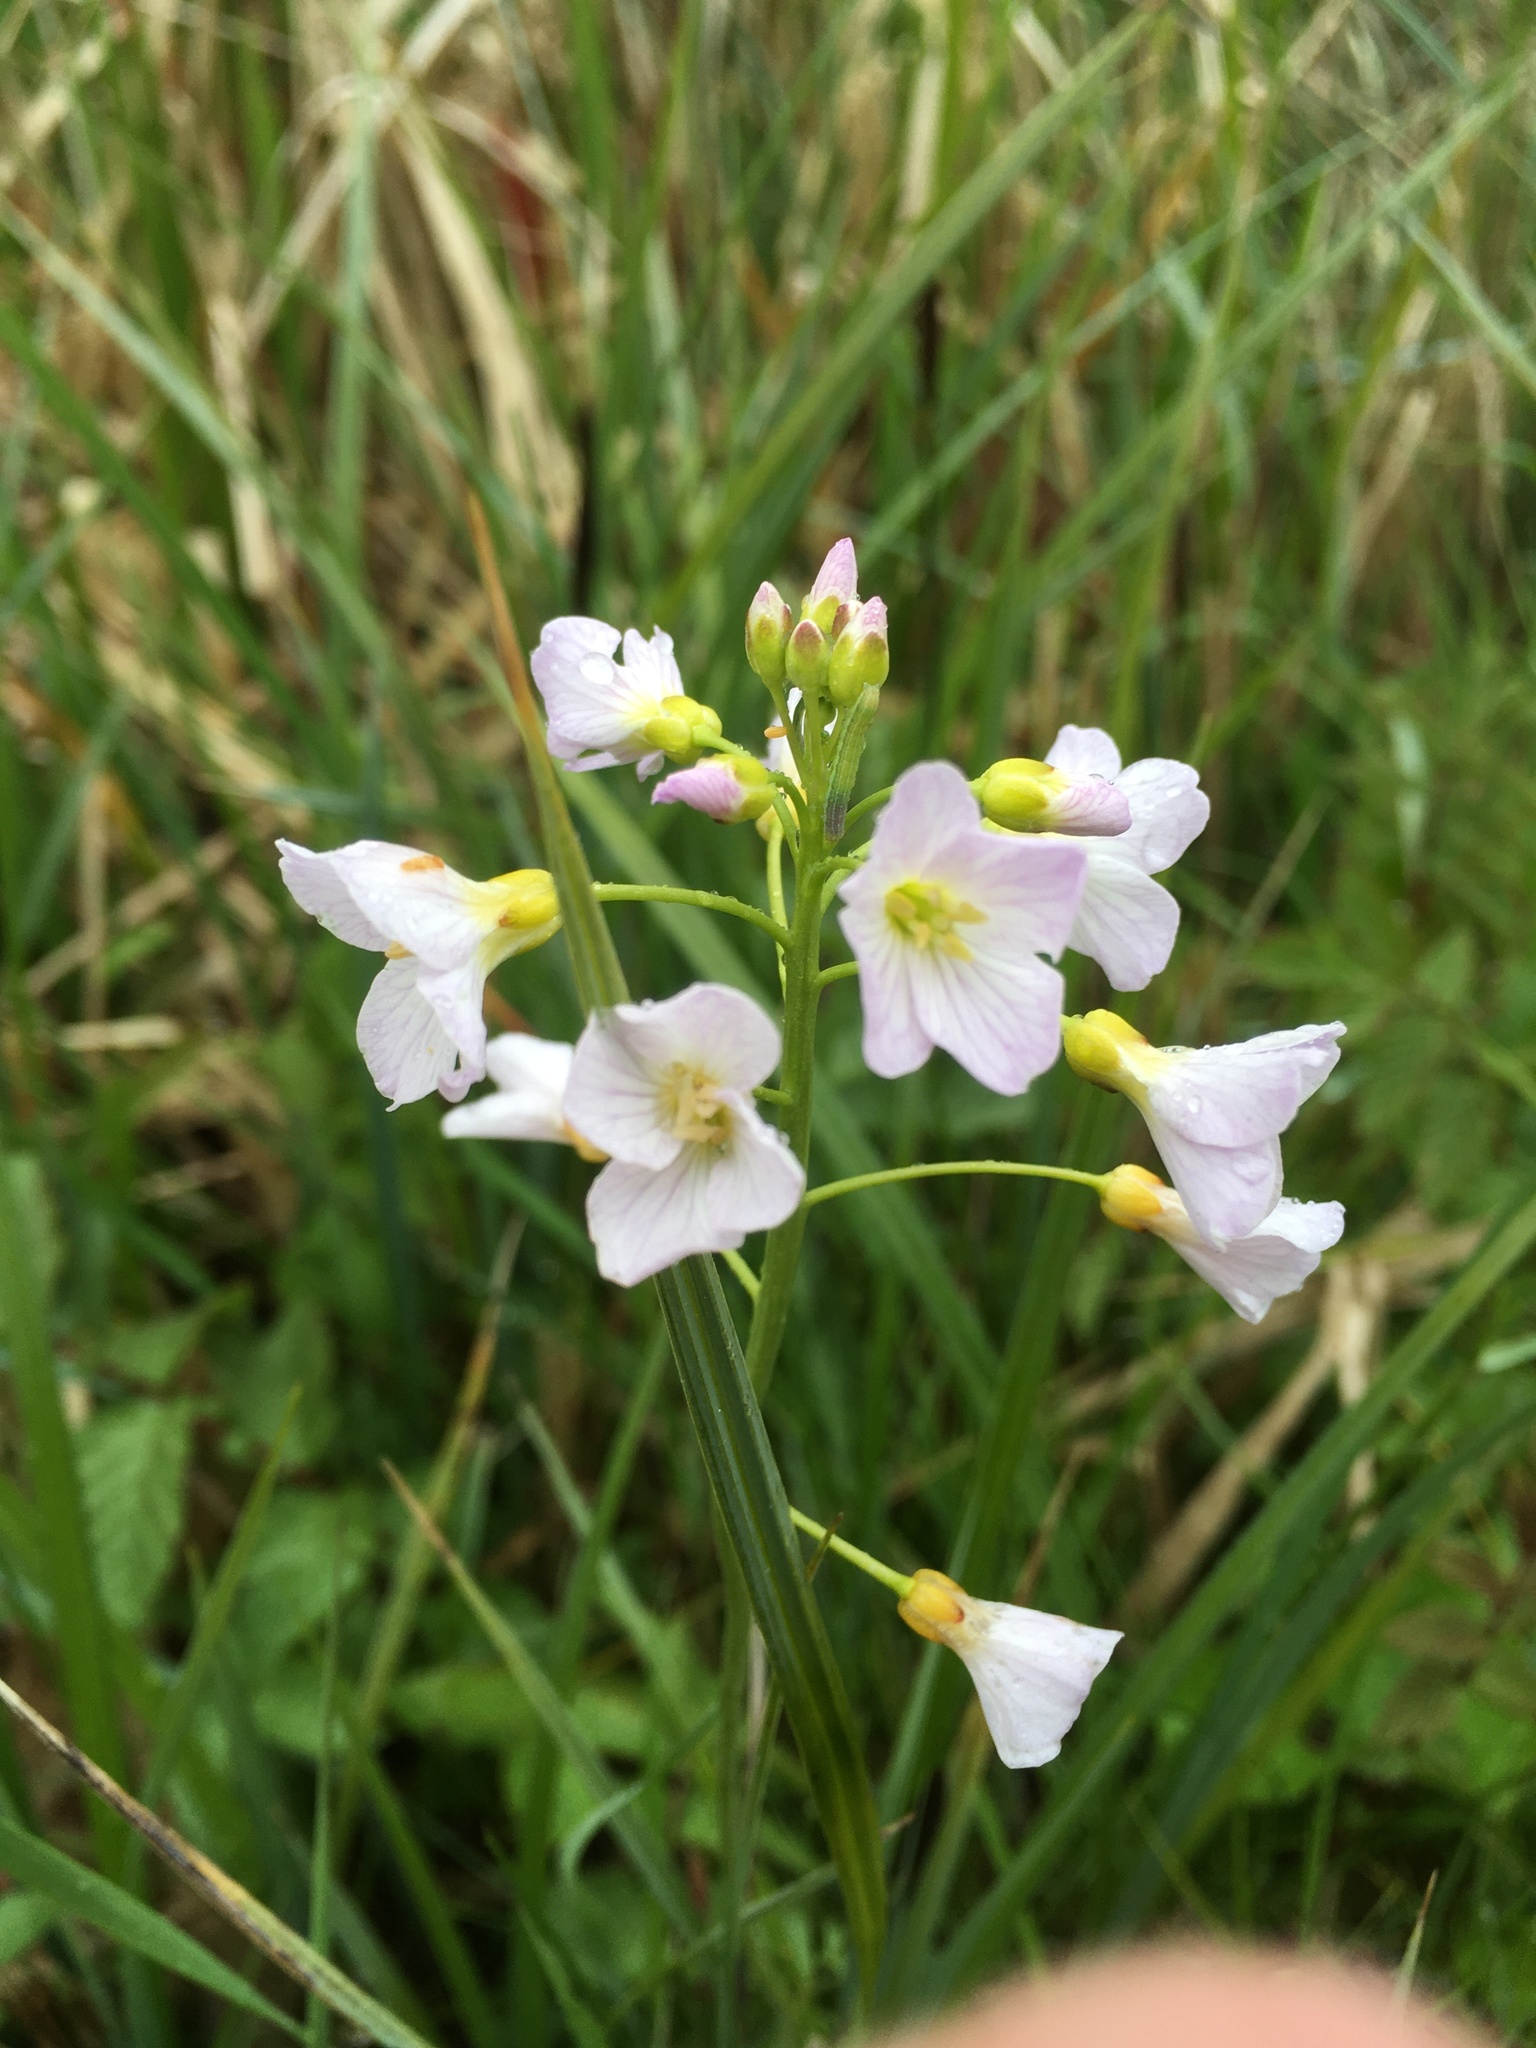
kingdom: Plantae
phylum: Tracheophyta
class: Magnoliopsida
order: Brassicales
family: Brassicaceae
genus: Cardamine
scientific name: Cardamine pratensis
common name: Cuckoo flower
